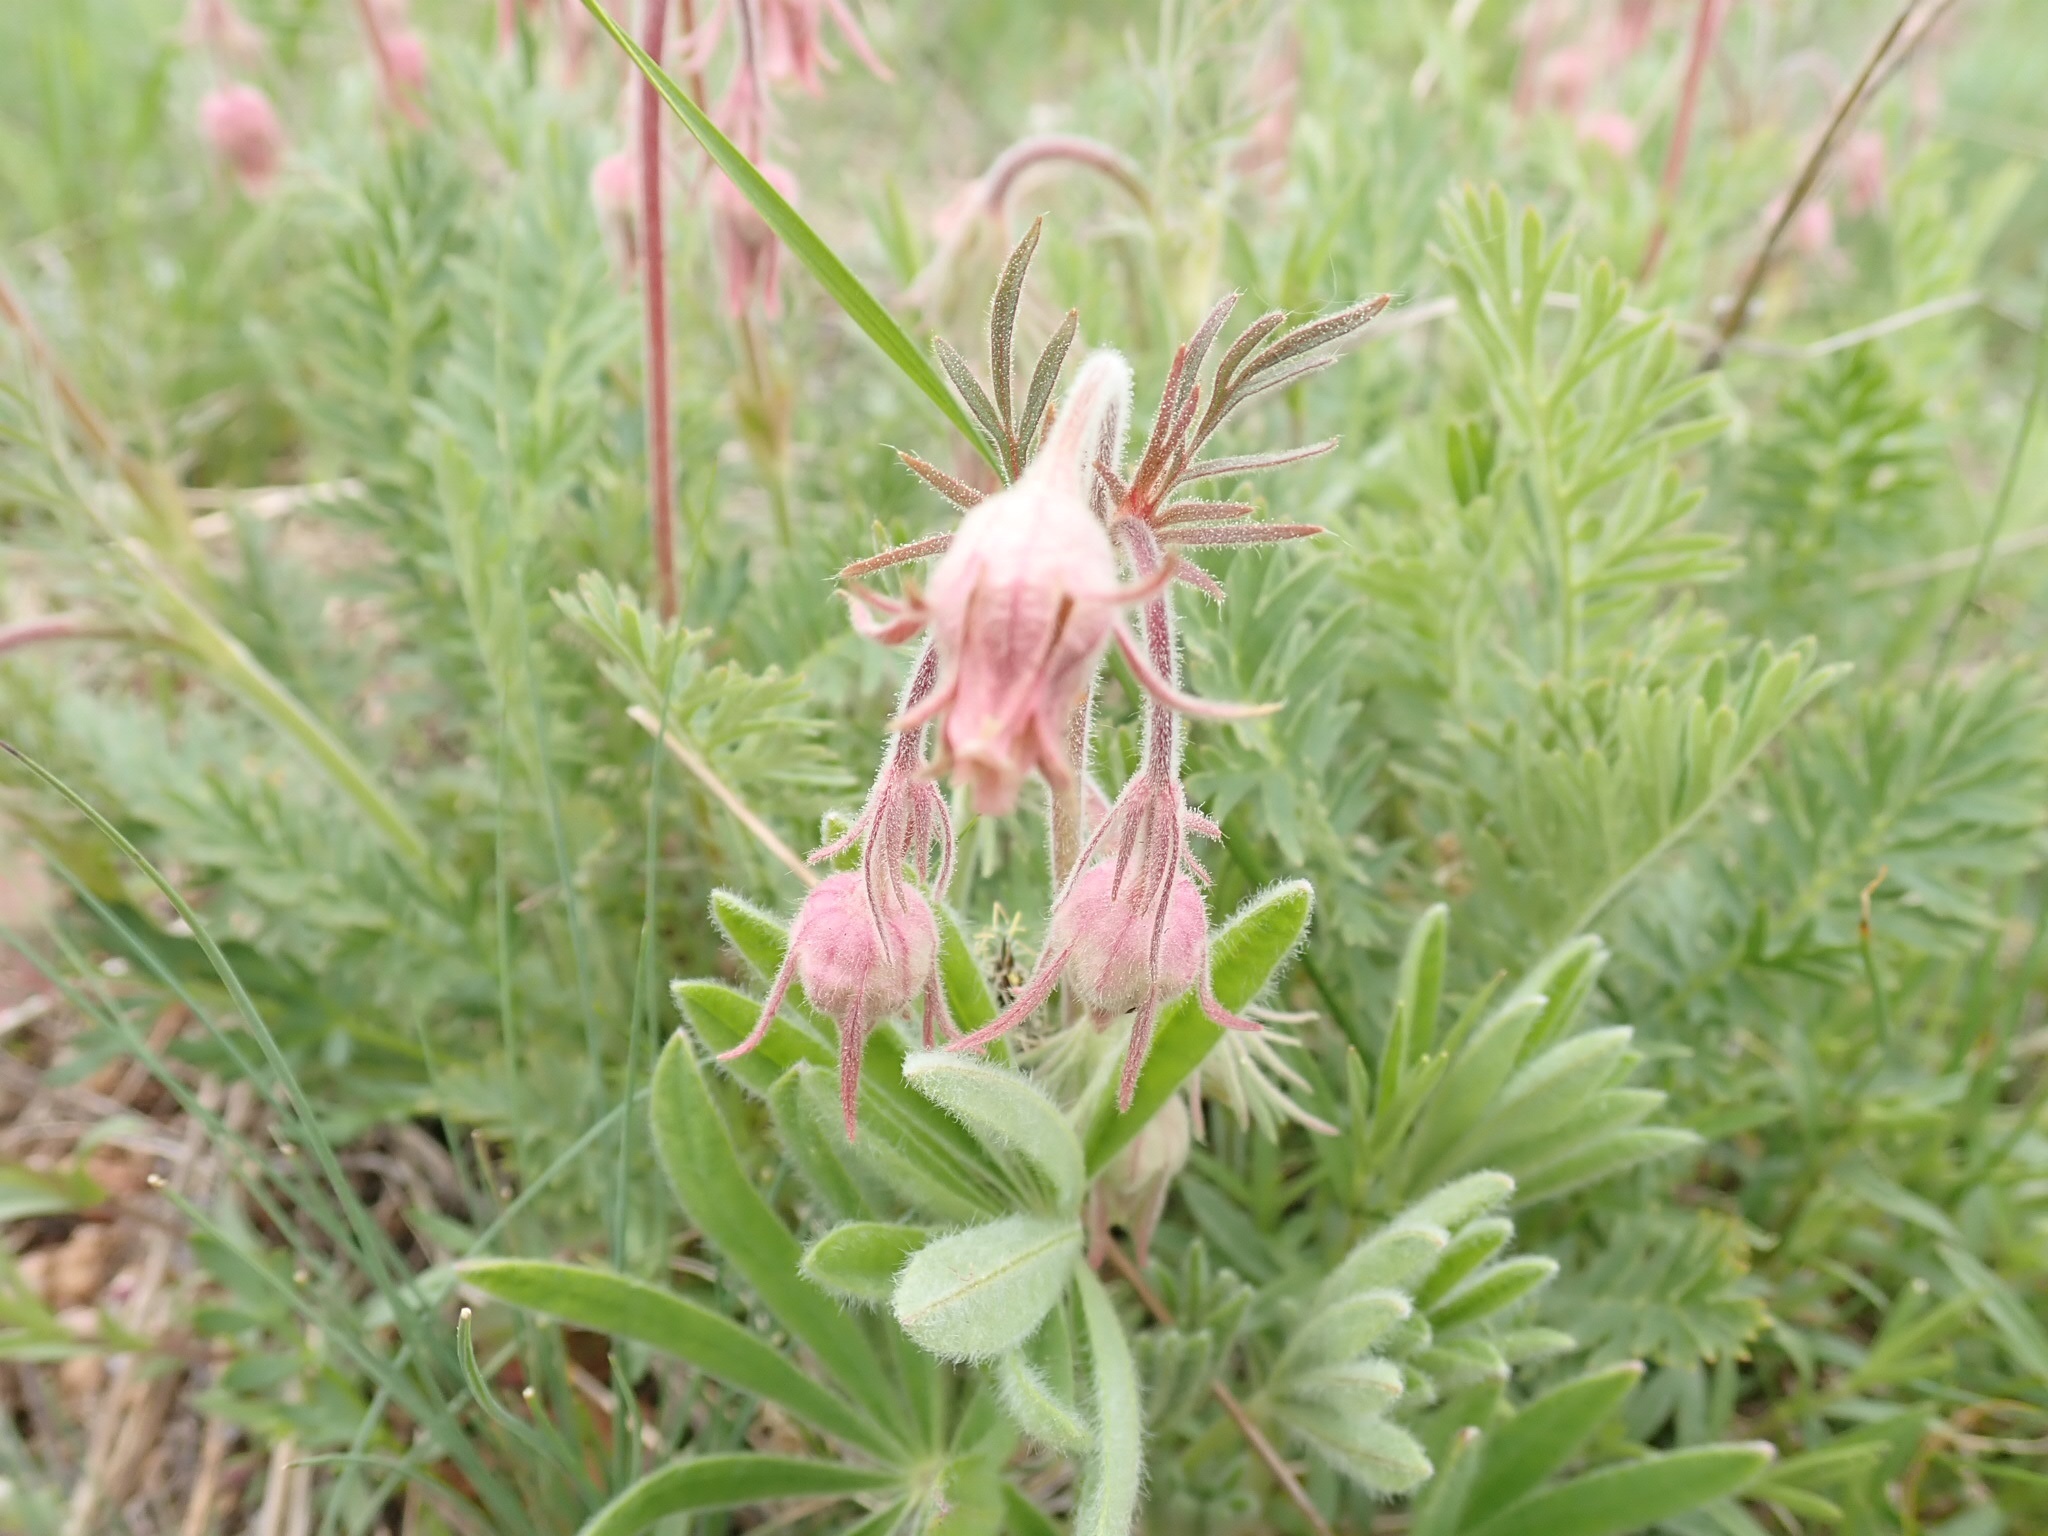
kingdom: Plantae
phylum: Tracheophyta
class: Magnoliopsida
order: Rosales
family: Rosaceae
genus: Geum
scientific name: Geum triflorum
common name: Old man's whiskers
